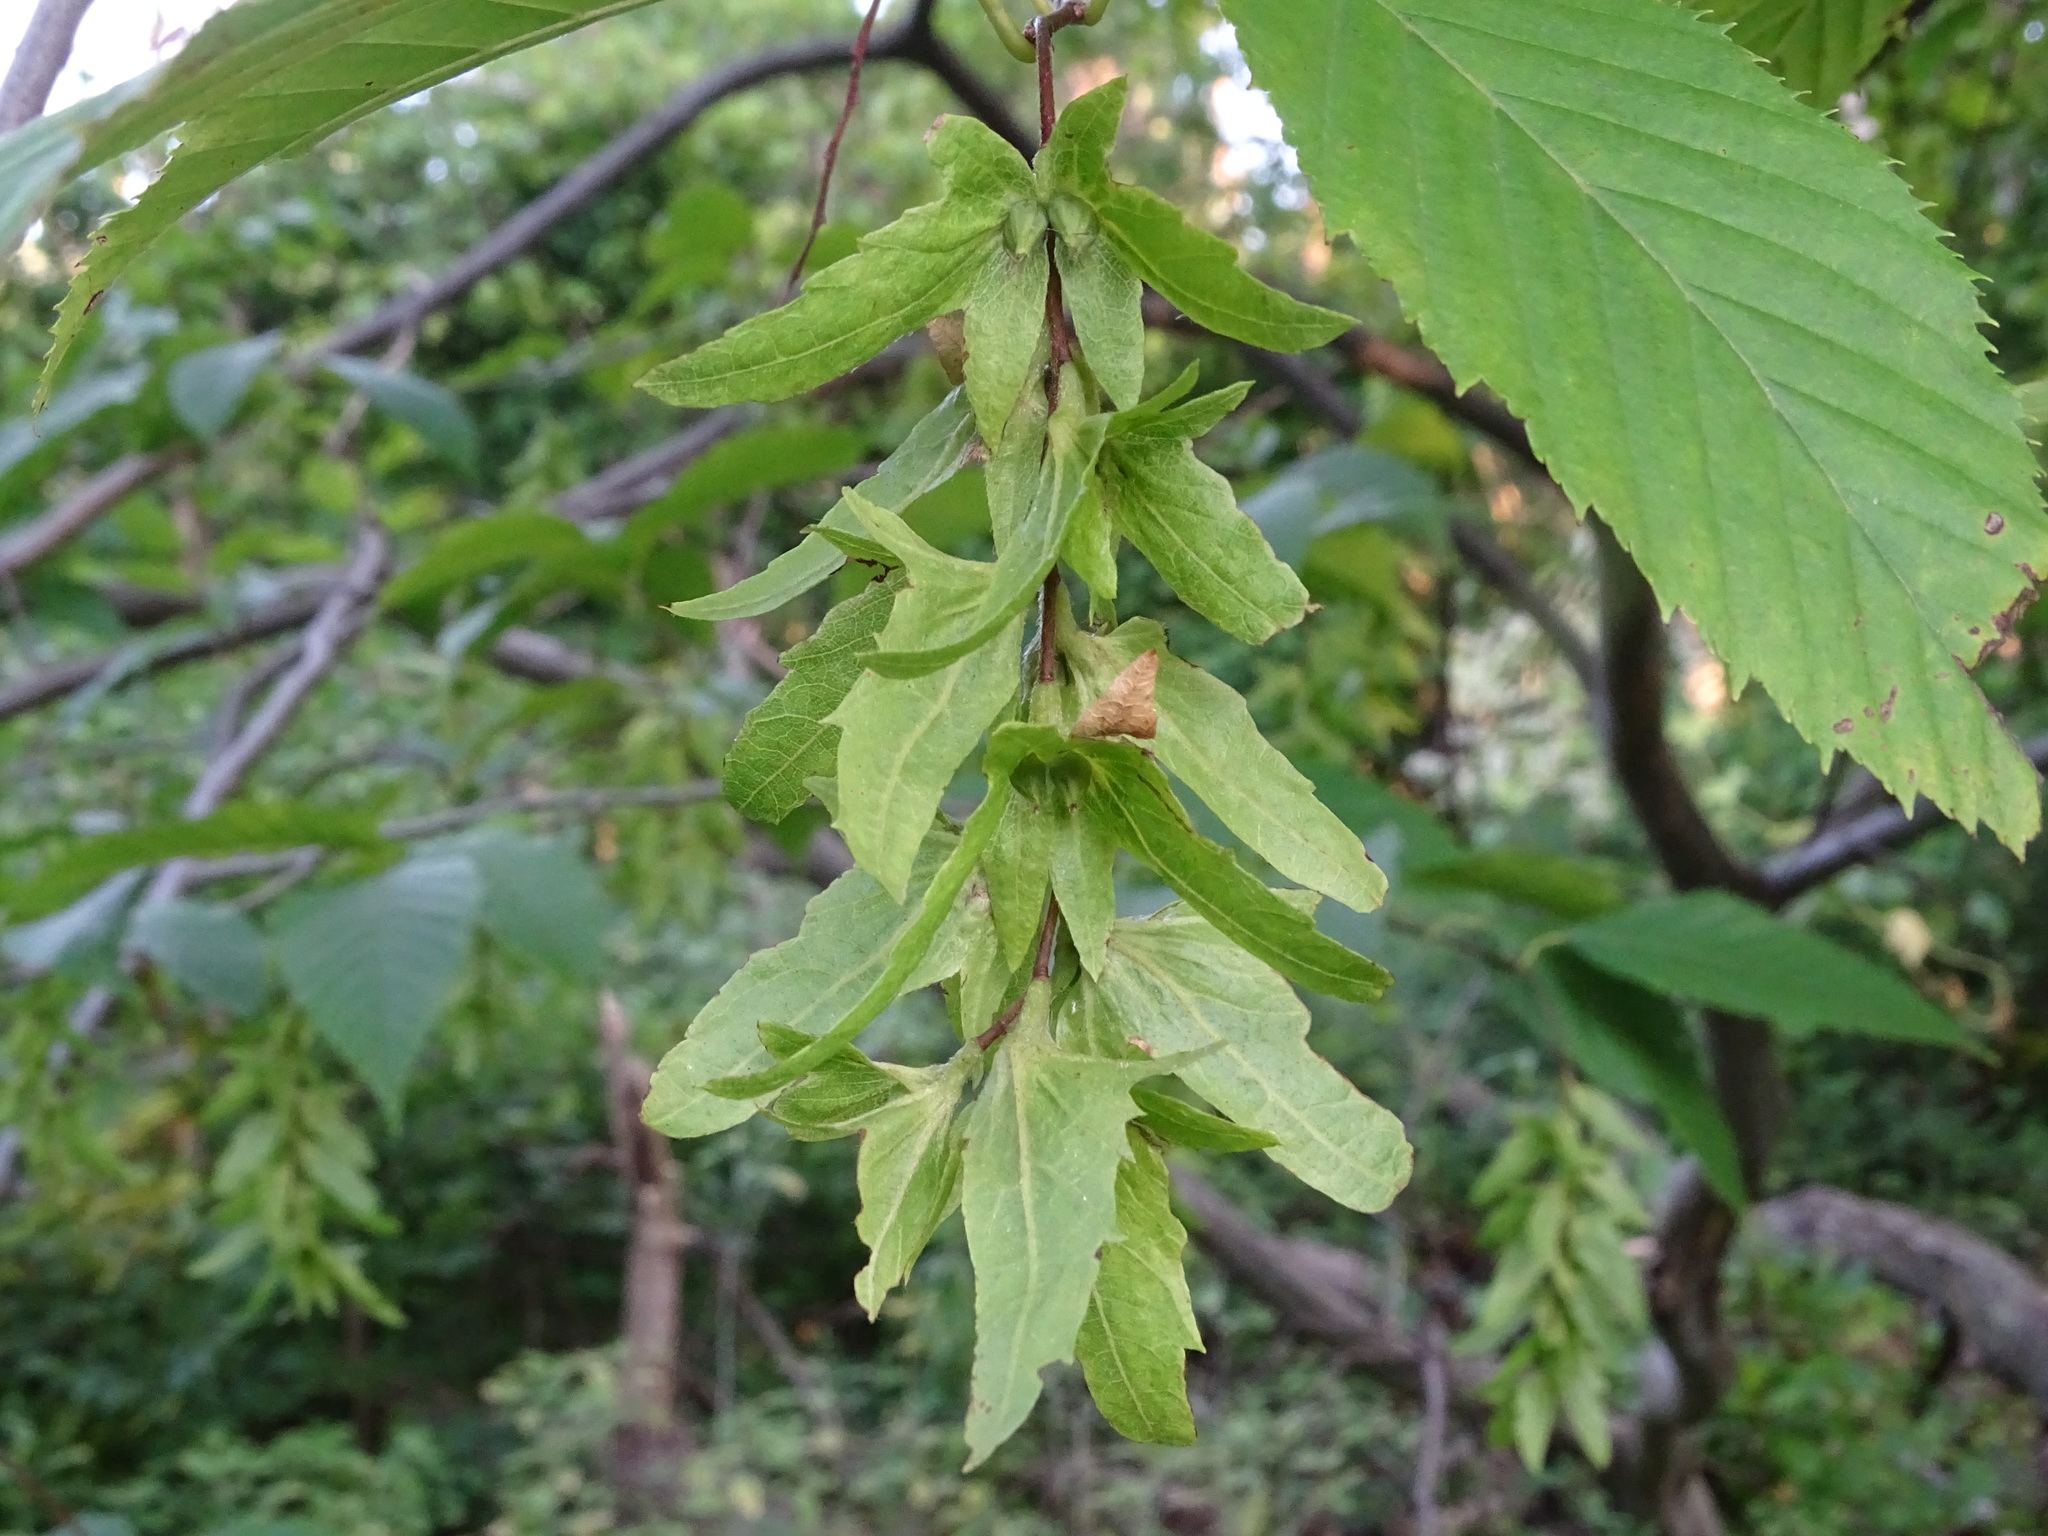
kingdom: Plantae
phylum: Tracheophyta
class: Magnoliopsida
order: Fagales
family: Betulaceae
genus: Carpinus
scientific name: Carpinus caroliniana
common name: American hornbeam
